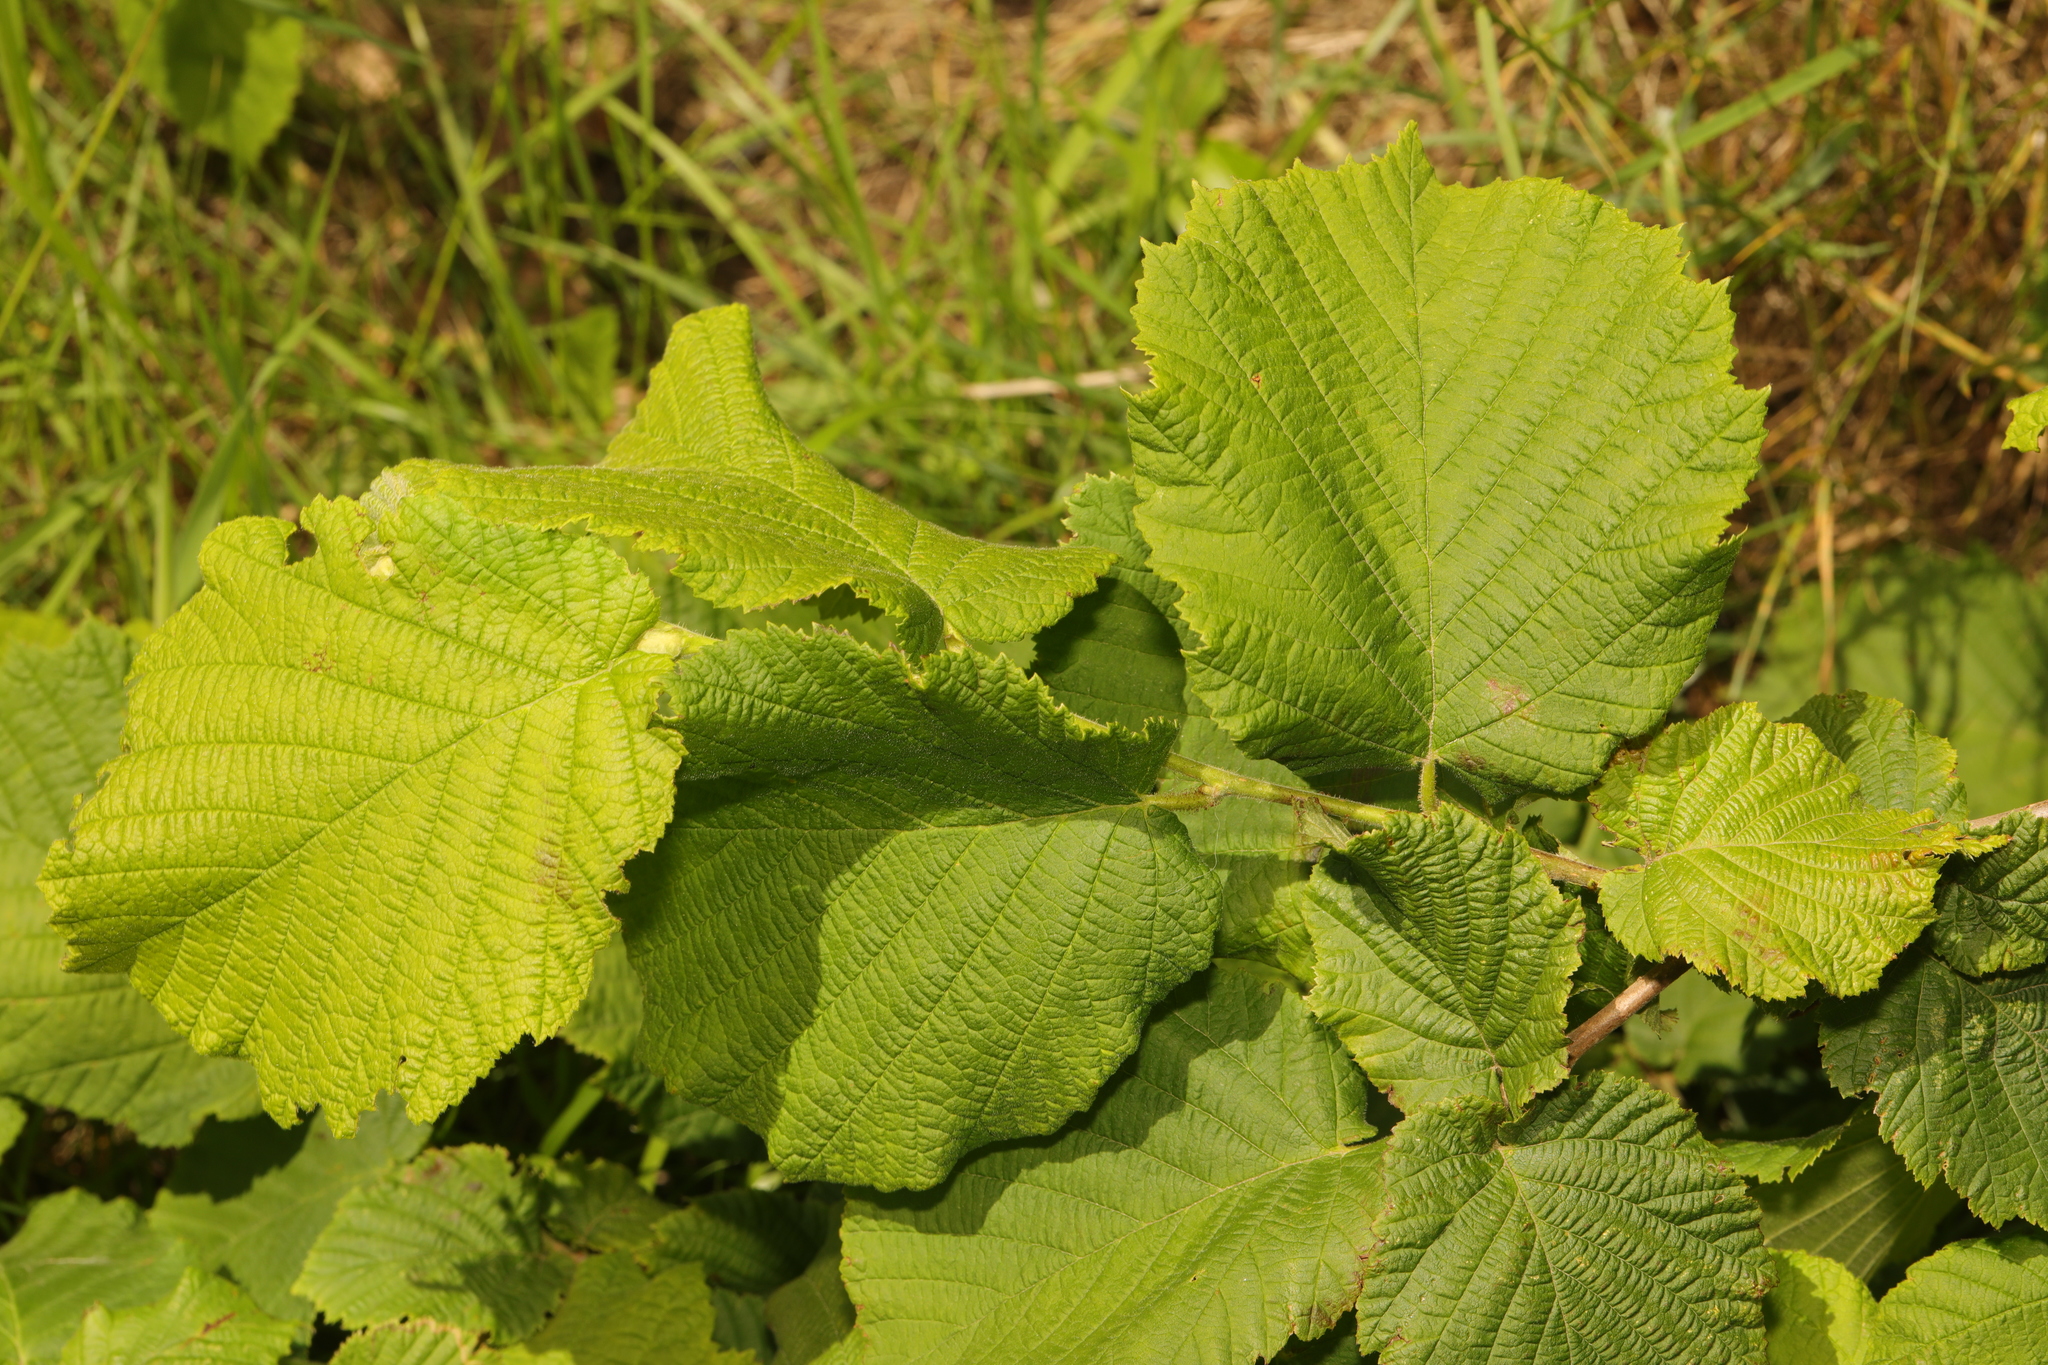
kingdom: Plantae
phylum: Tracheophyta
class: Magnoliopsida
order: Fagales
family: Betulaceae
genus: Corylus
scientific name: Corylus avellana
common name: European hazel
